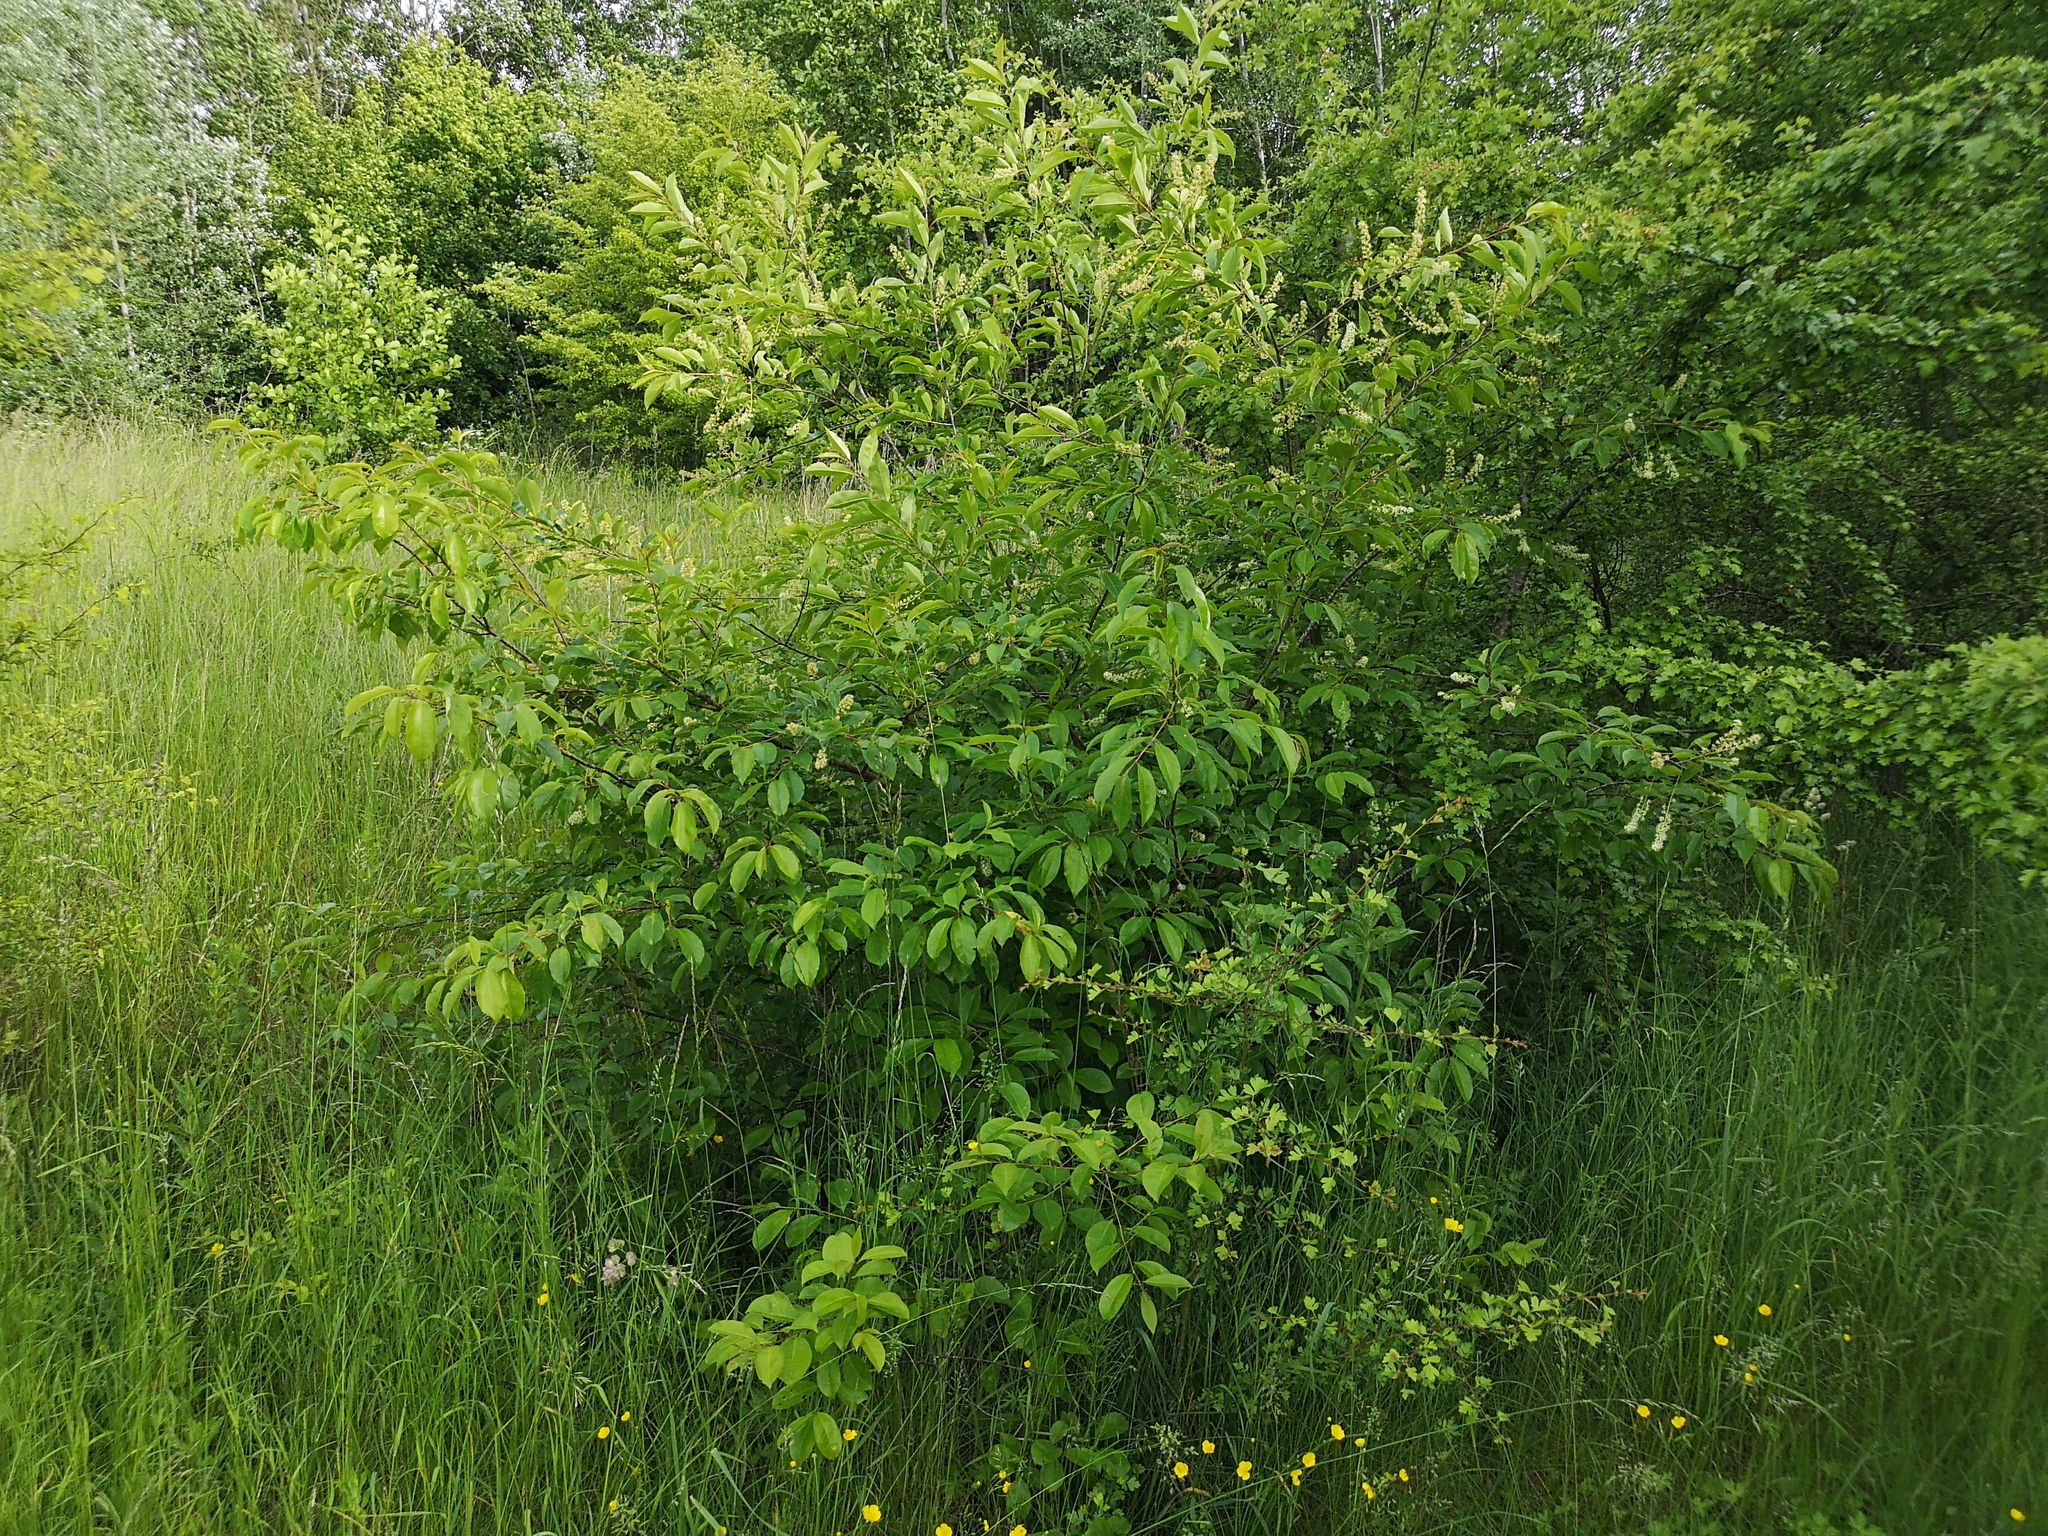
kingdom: Plantae
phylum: Tracheophyta
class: Magnoliopsida
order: Rosales
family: Rosaceae
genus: Prunus
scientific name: Prunus serotina
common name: Black cherry
